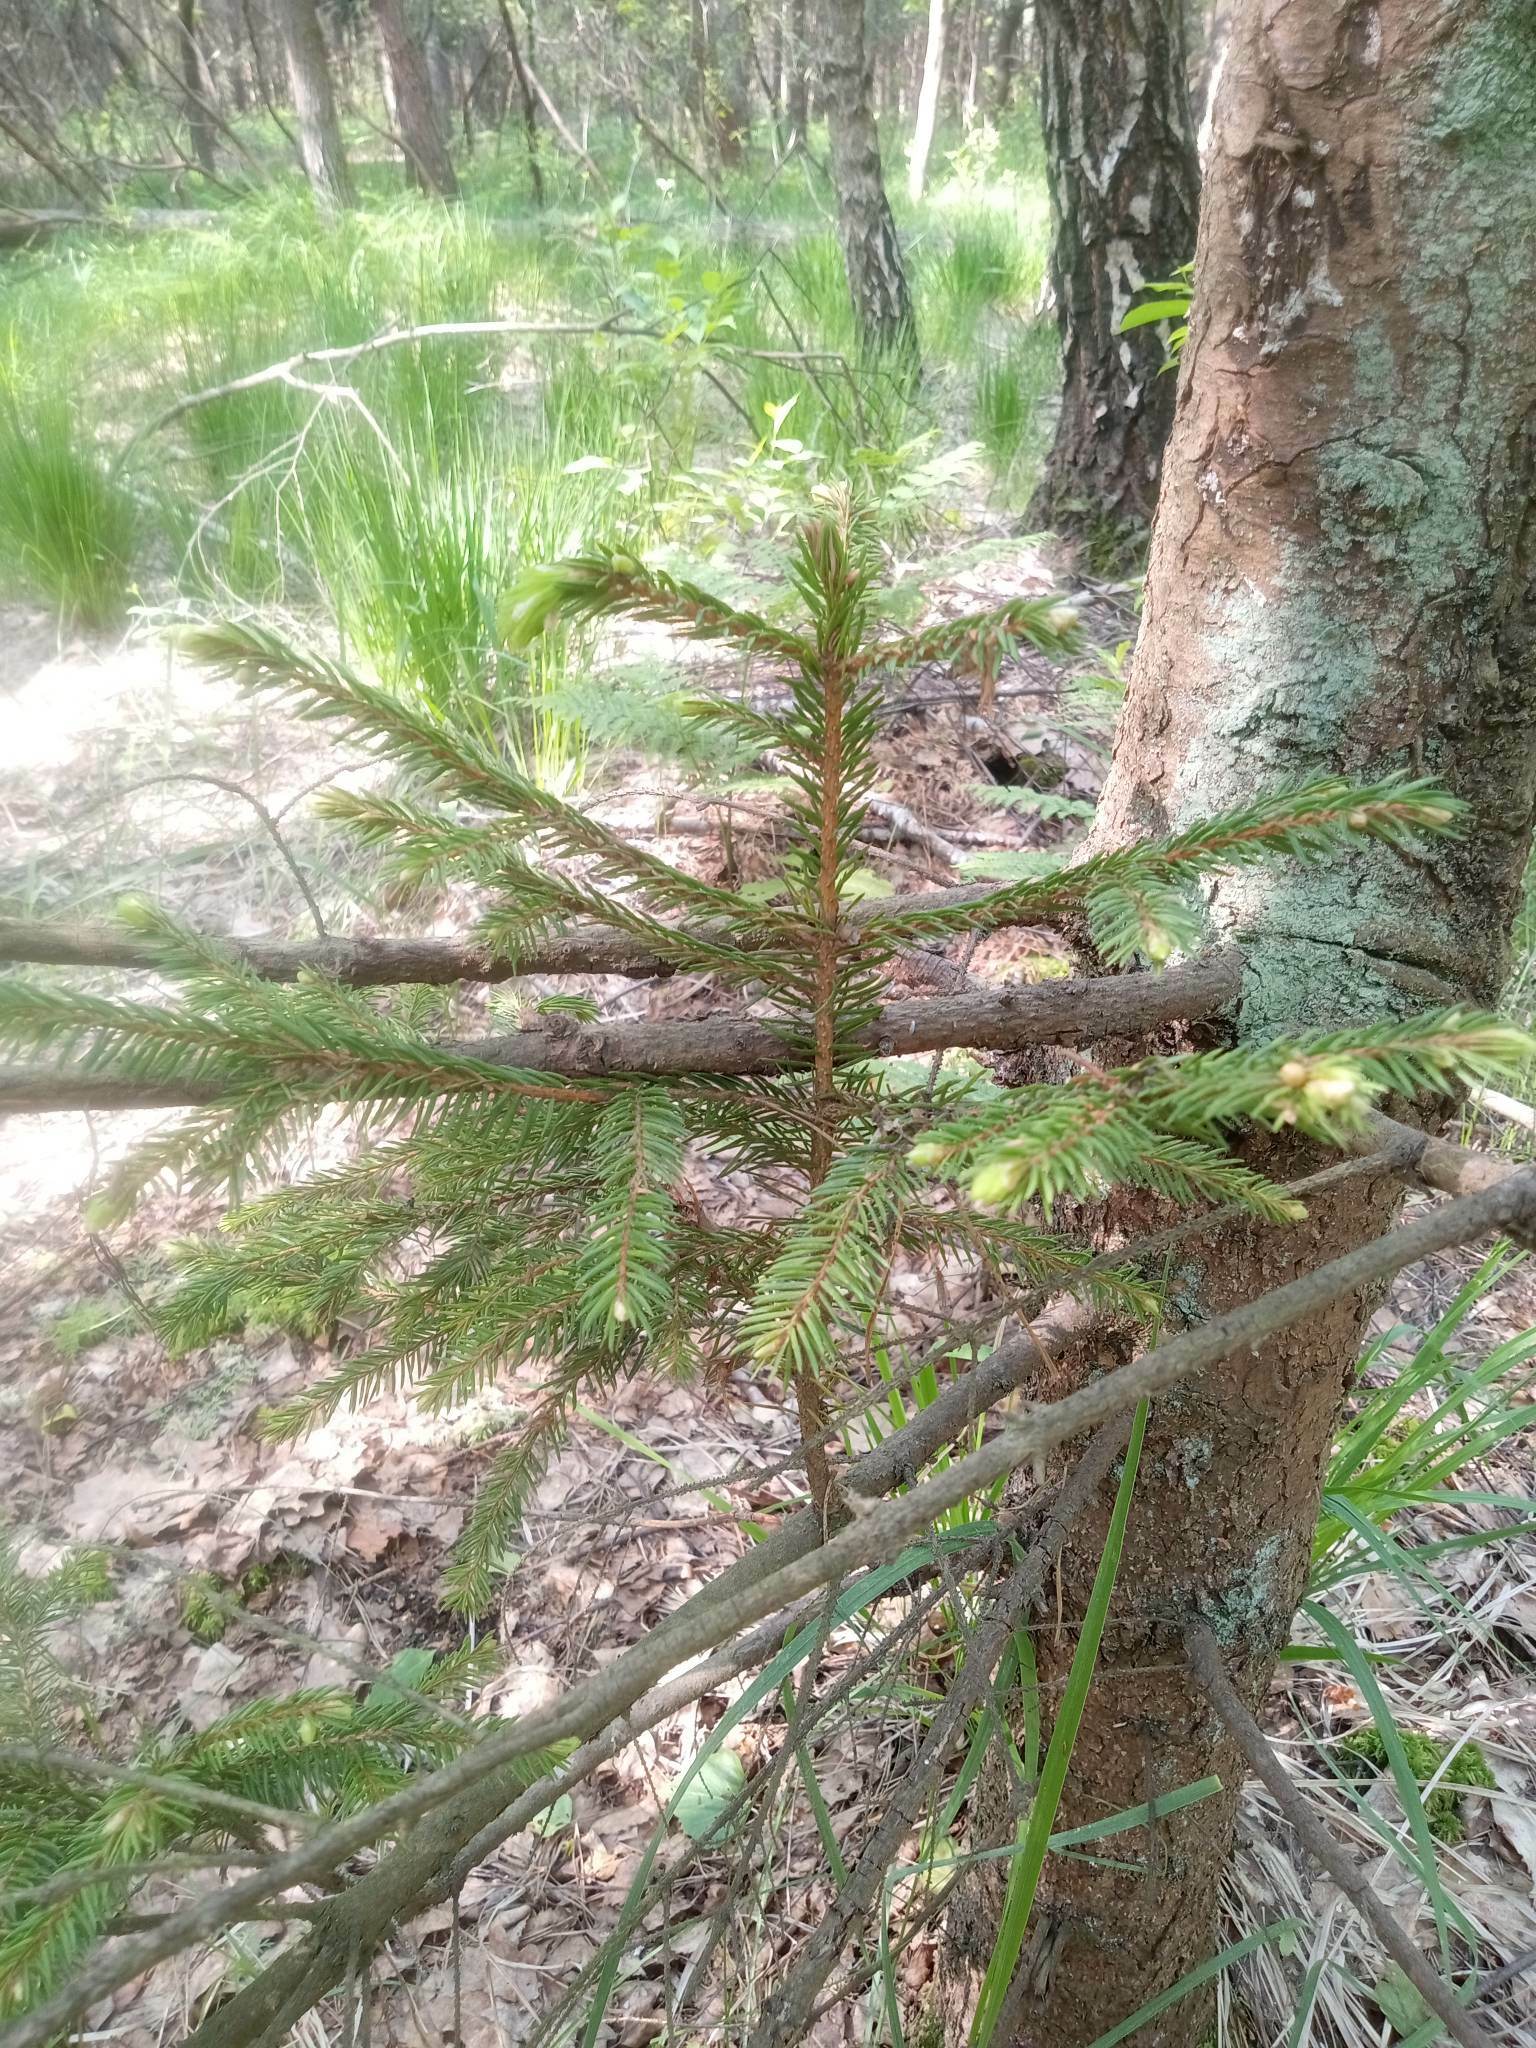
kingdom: Plantae
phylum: Tracheophyta
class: Pinopsida
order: Pinales
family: Pinaceae
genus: Picea
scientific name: Picea abies
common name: Norway spruce
